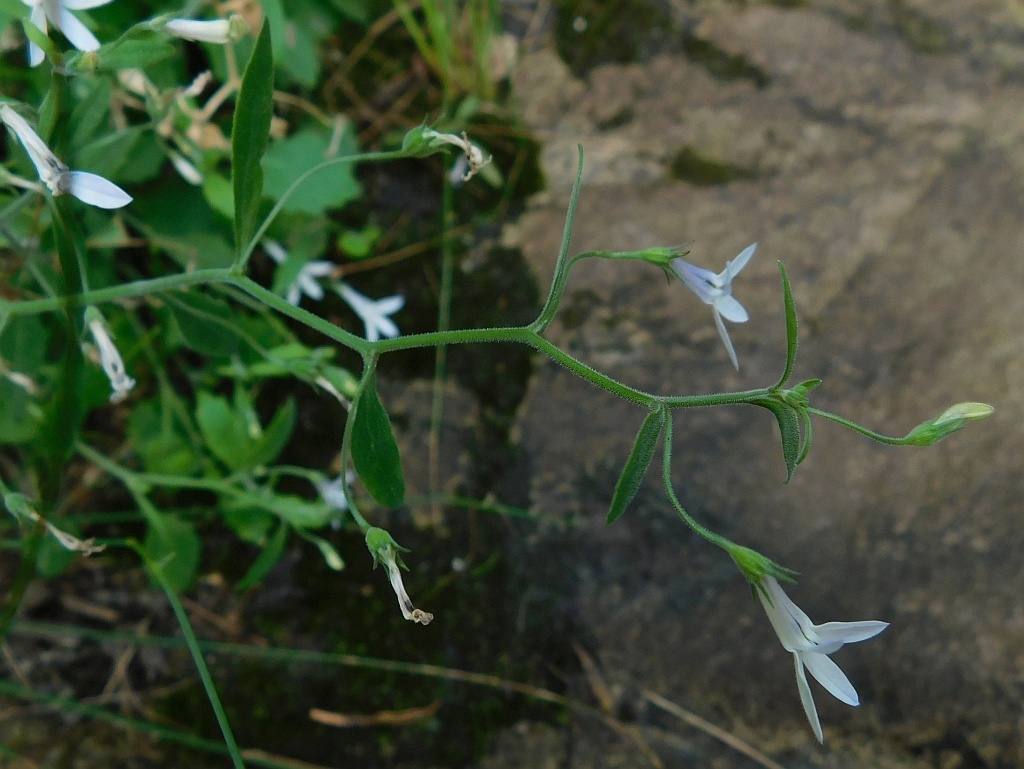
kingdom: Plantae
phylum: Tracheophyta
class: Magnoliopsida
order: Asterales
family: Campanulaceae
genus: Lobelia
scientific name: Lobelia pubescens
